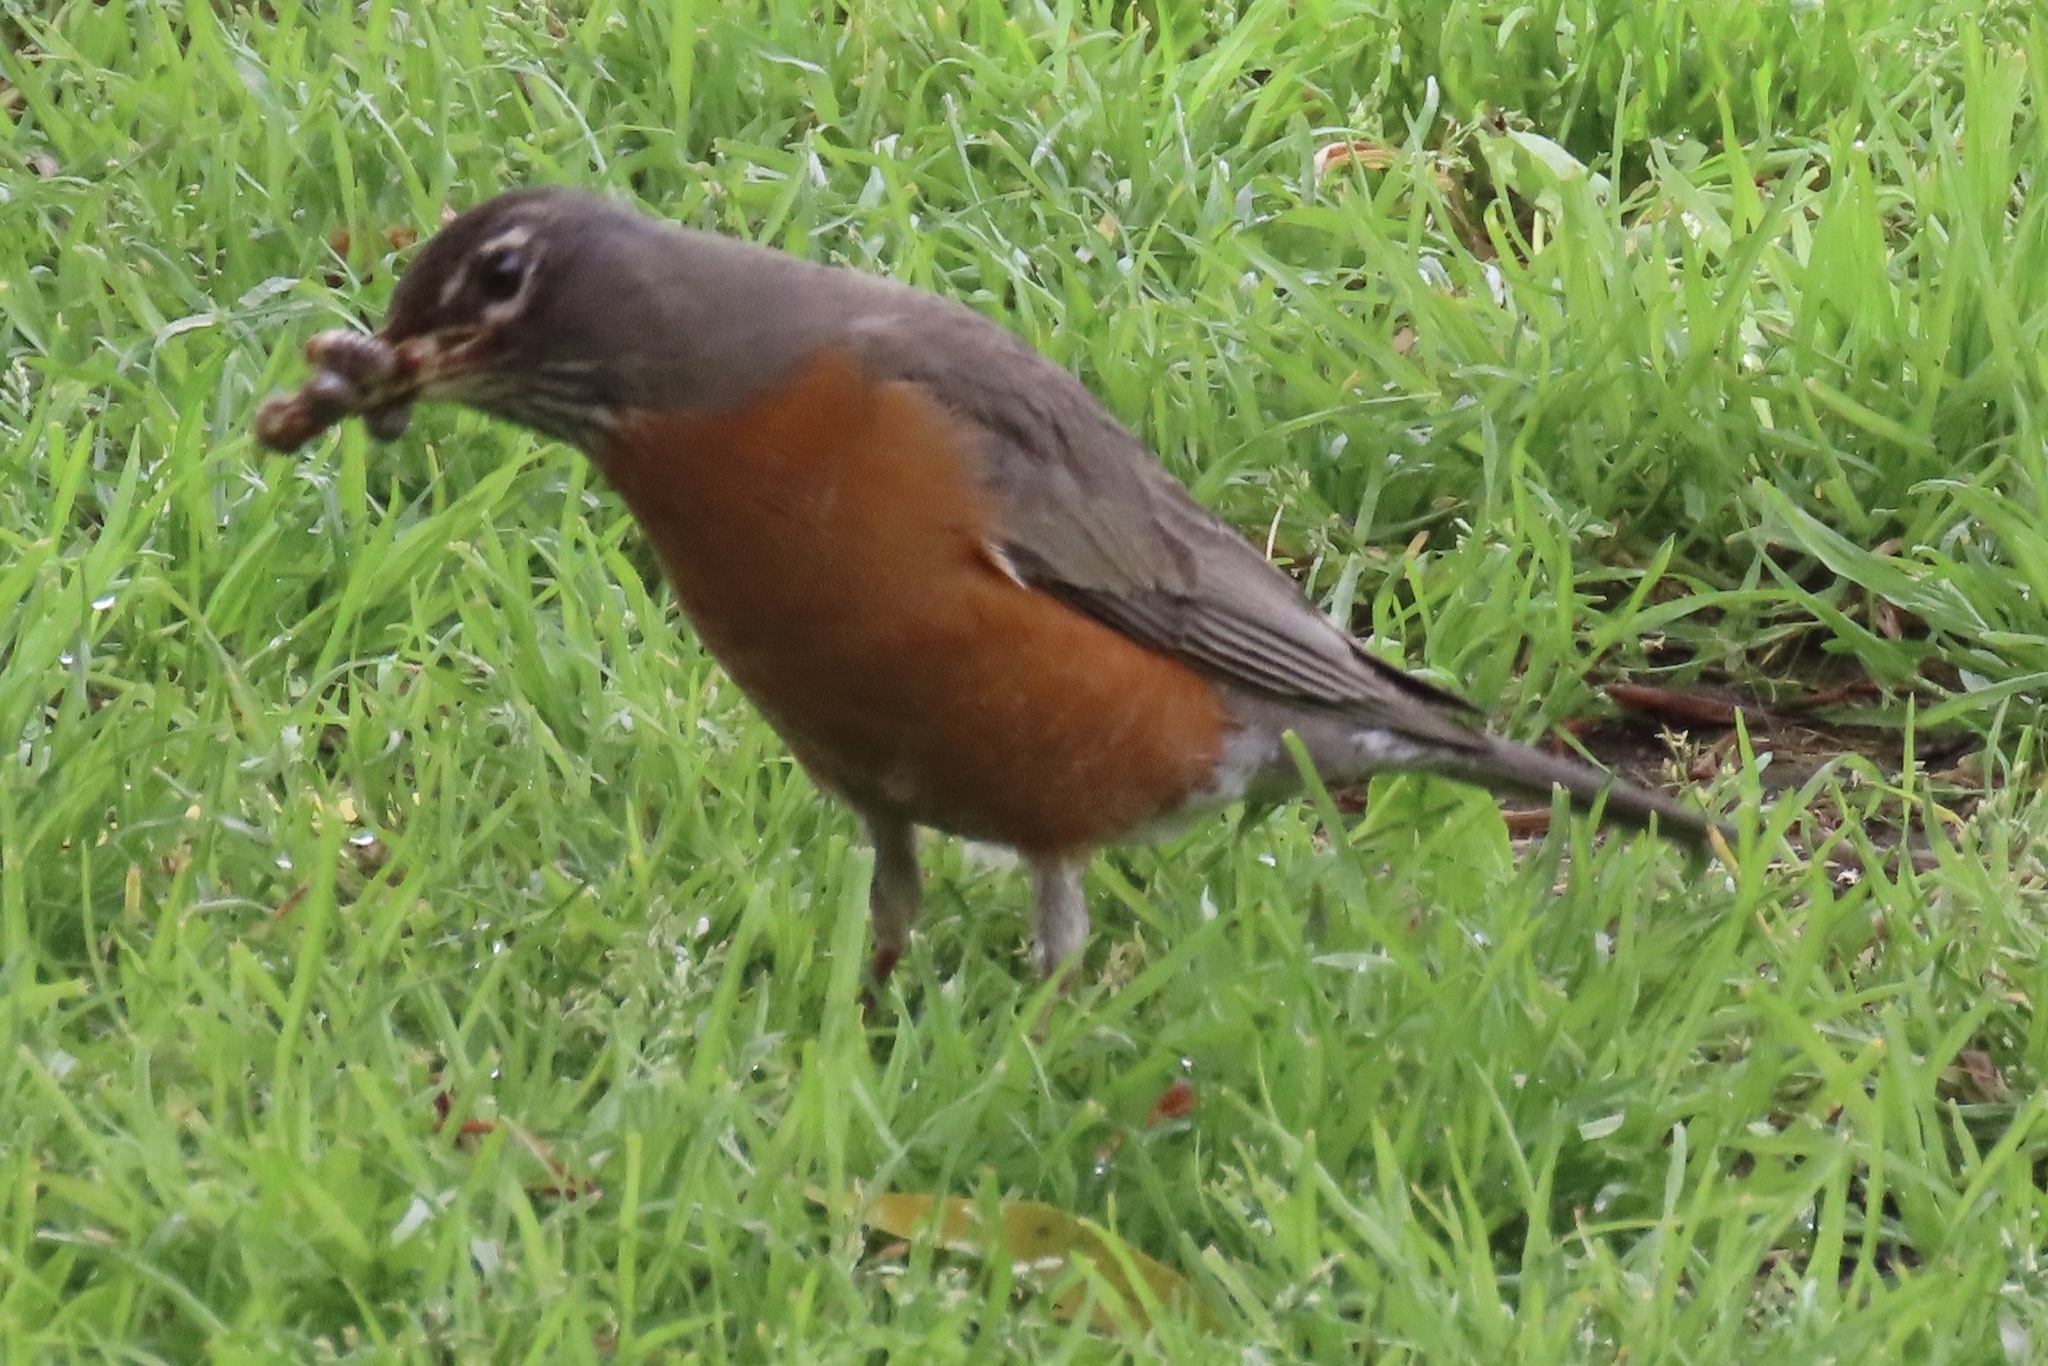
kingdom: Animalia
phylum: Chordata
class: Aves
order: Passeriformes
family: Turdidae
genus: Turdus
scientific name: Turdus migratorius
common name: American robin
